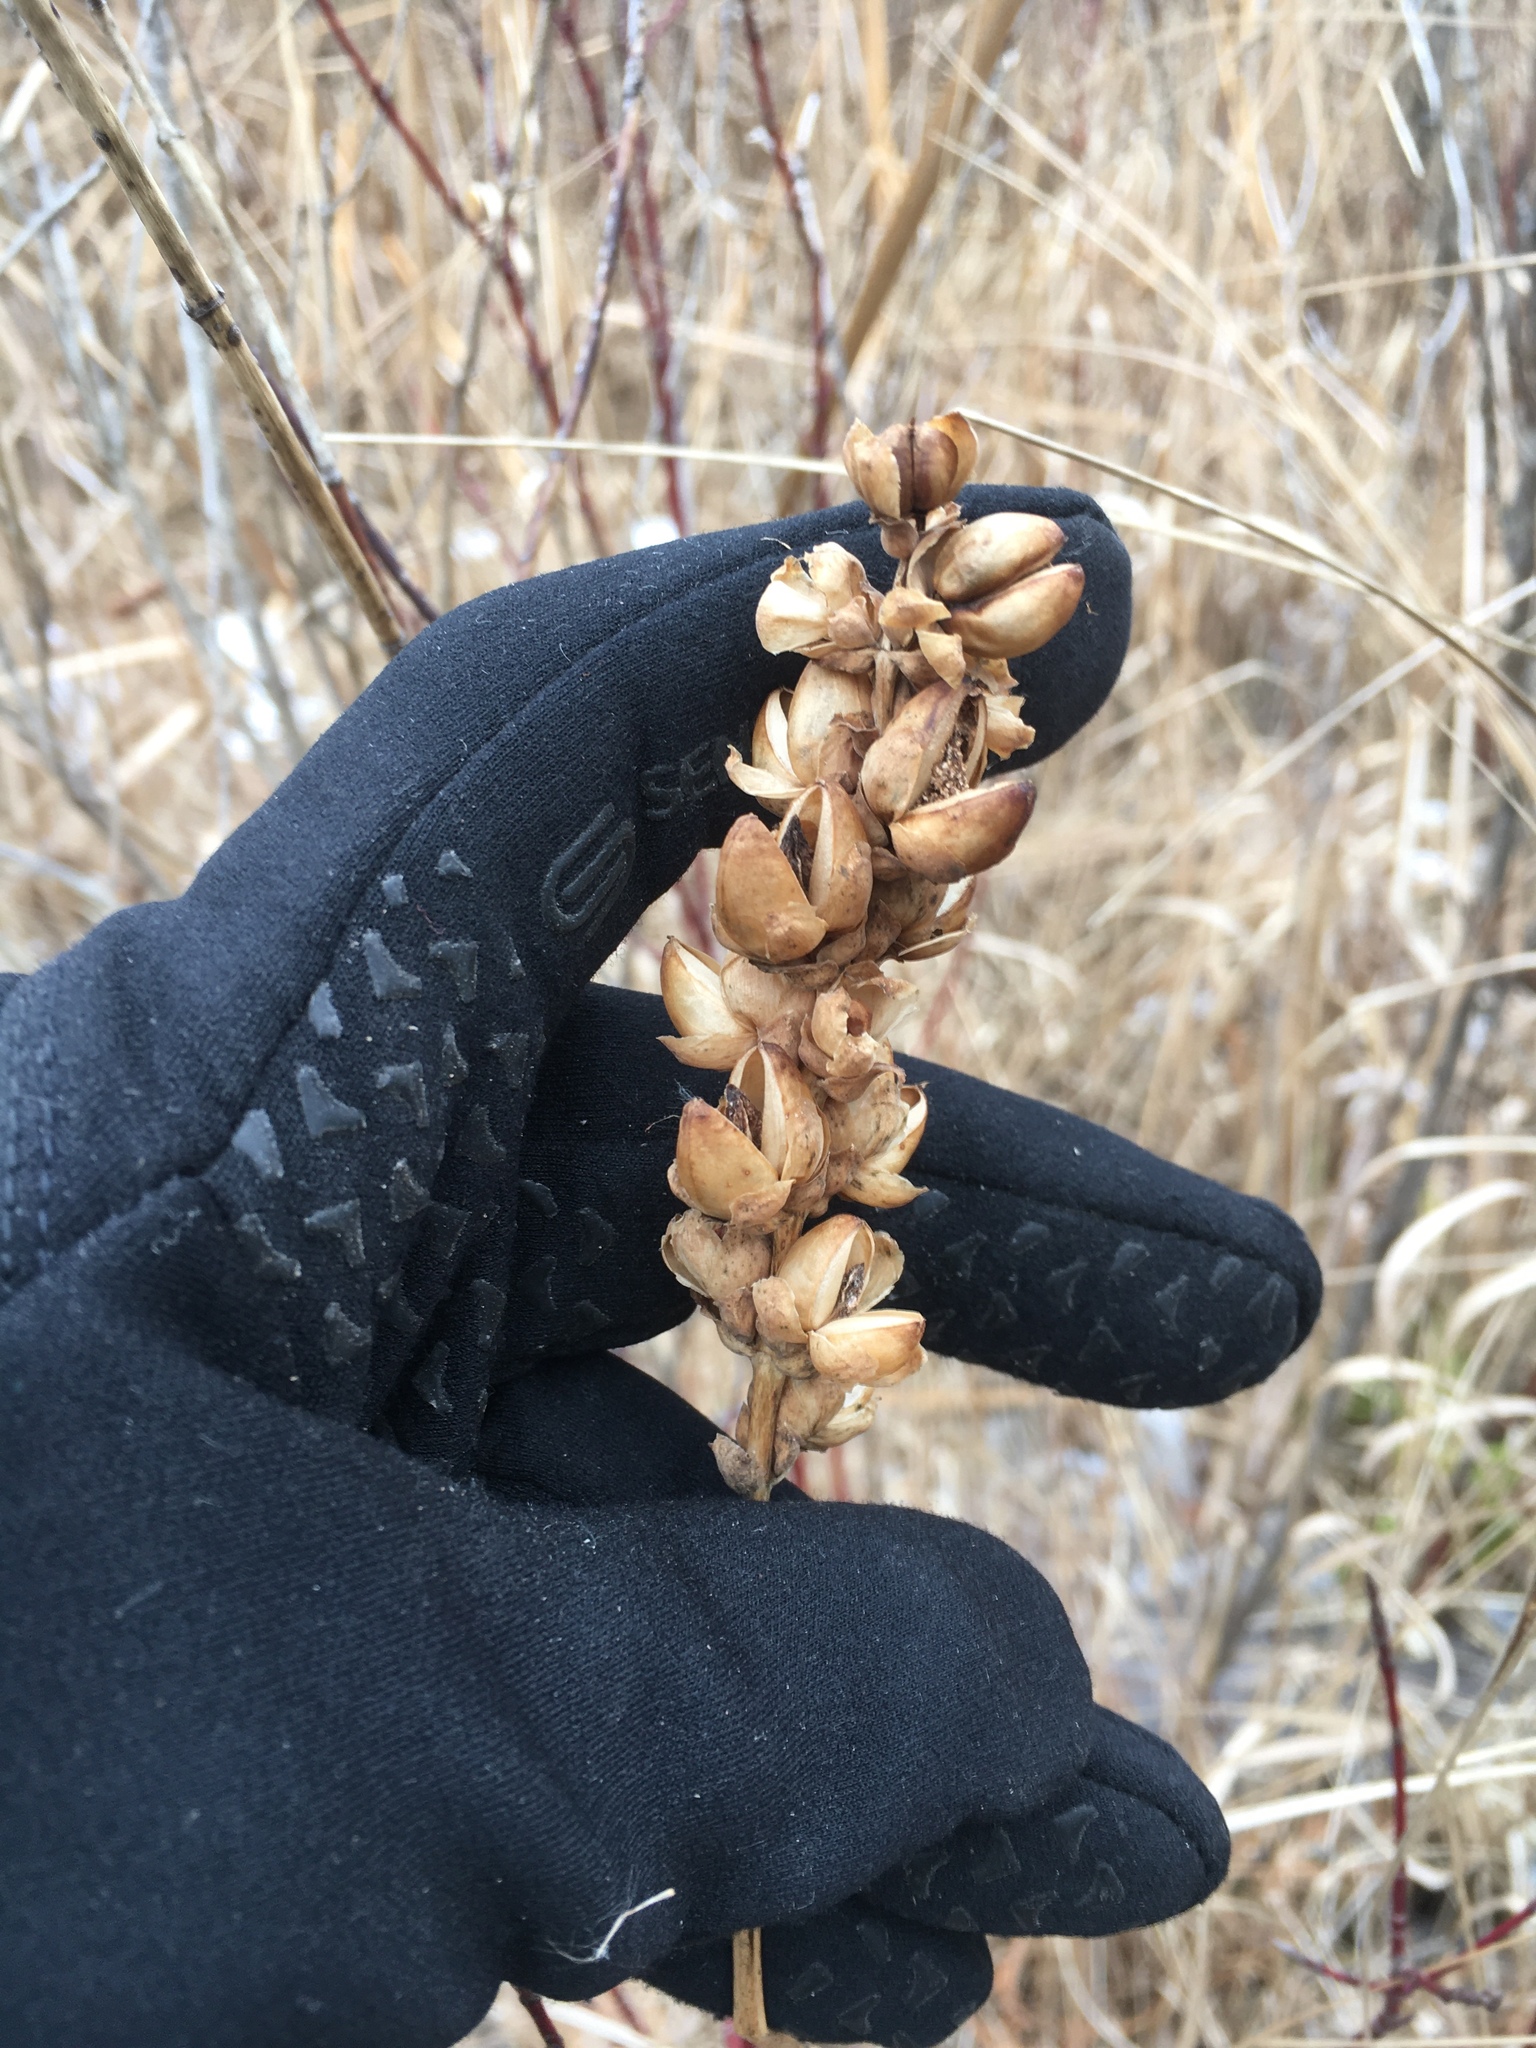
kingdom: Plantae
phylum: Tracheophyta
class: Magnoliopsida
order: Lamiales
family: Plantaginaceae
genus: Chelone
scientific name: Chelone glabra
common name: Snakehead
